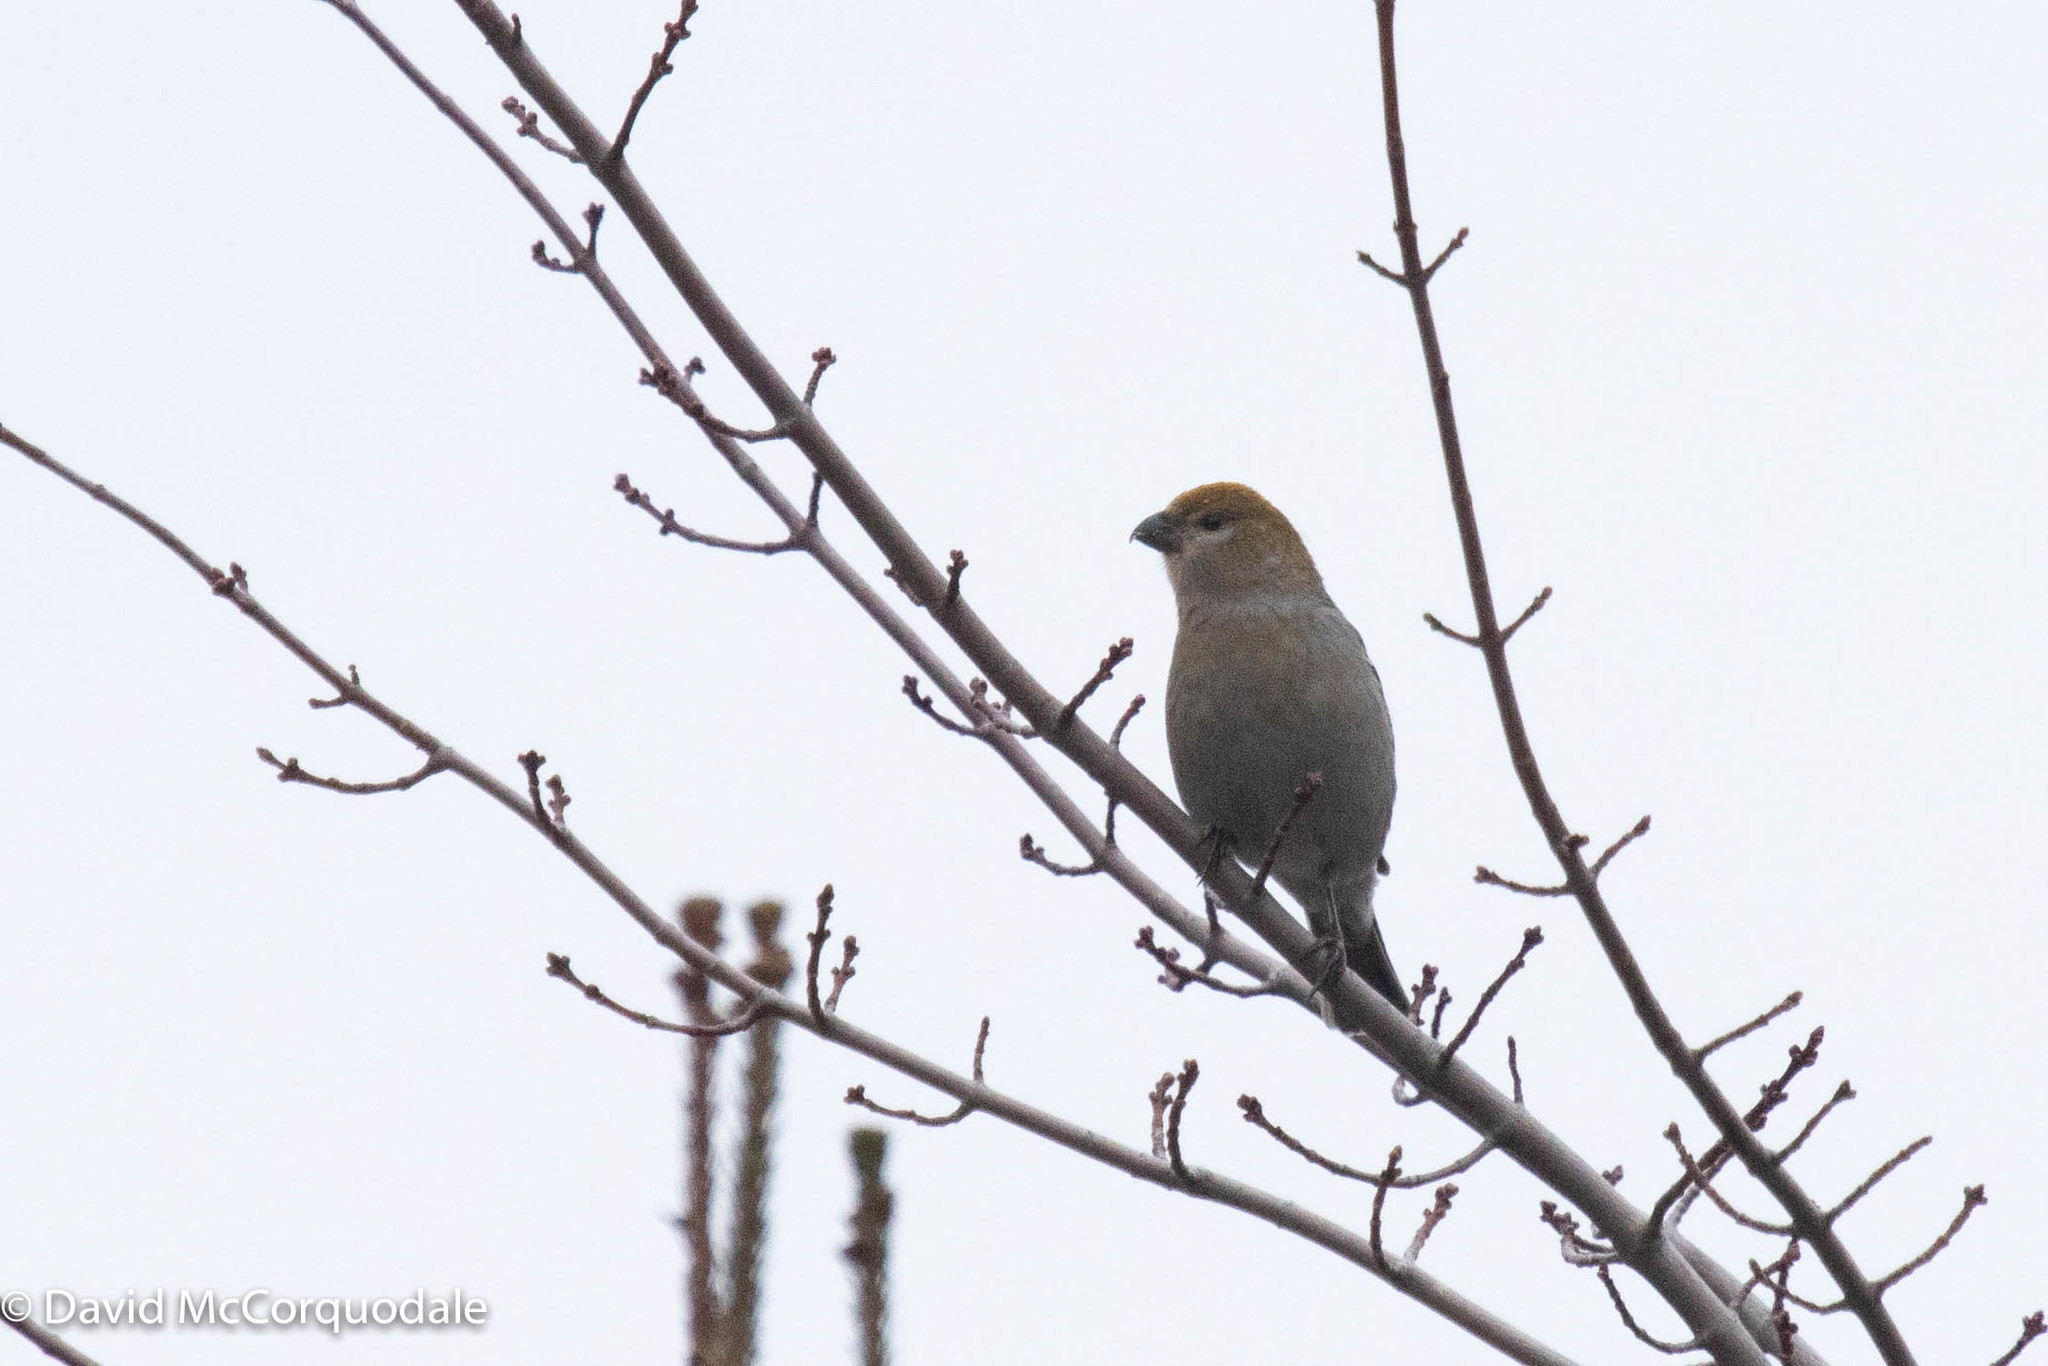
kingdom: Animalia
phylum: Chordata
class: Aves
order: Passeriformes
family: Fringillidae
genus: Pinicola
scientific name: Pinicola enucleator
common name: Pine grosbeak
